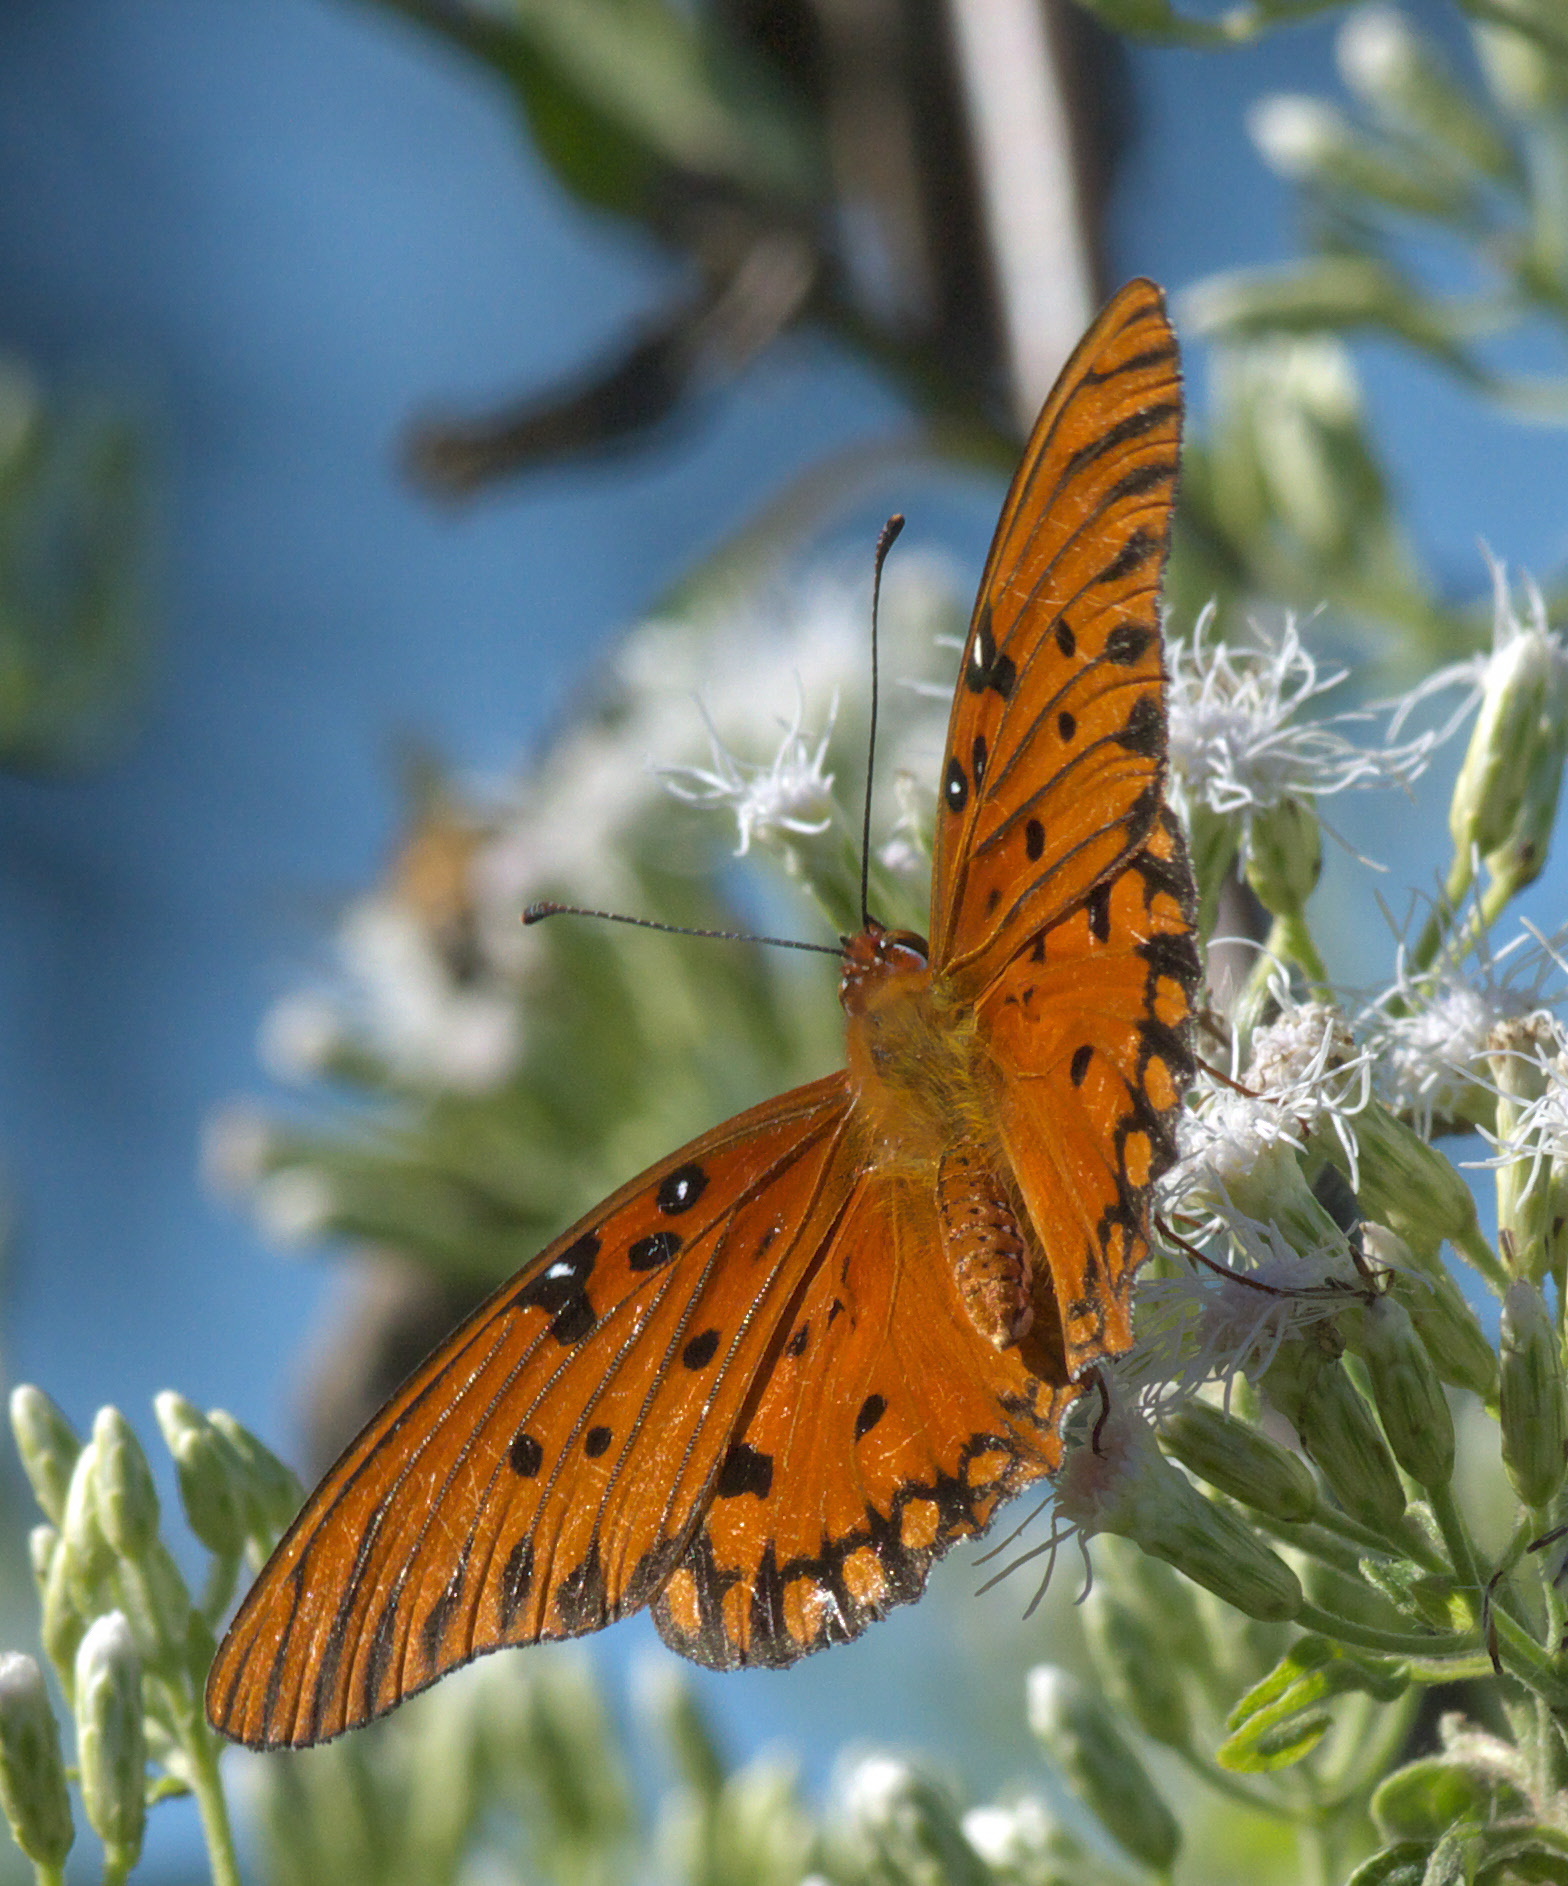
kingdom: Animalia
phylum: Arthropoda
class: Insecta
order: Lepidoptera
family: Nymphalidae
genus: Dione
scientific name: Dione vanillae
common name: Gulf fritillary
